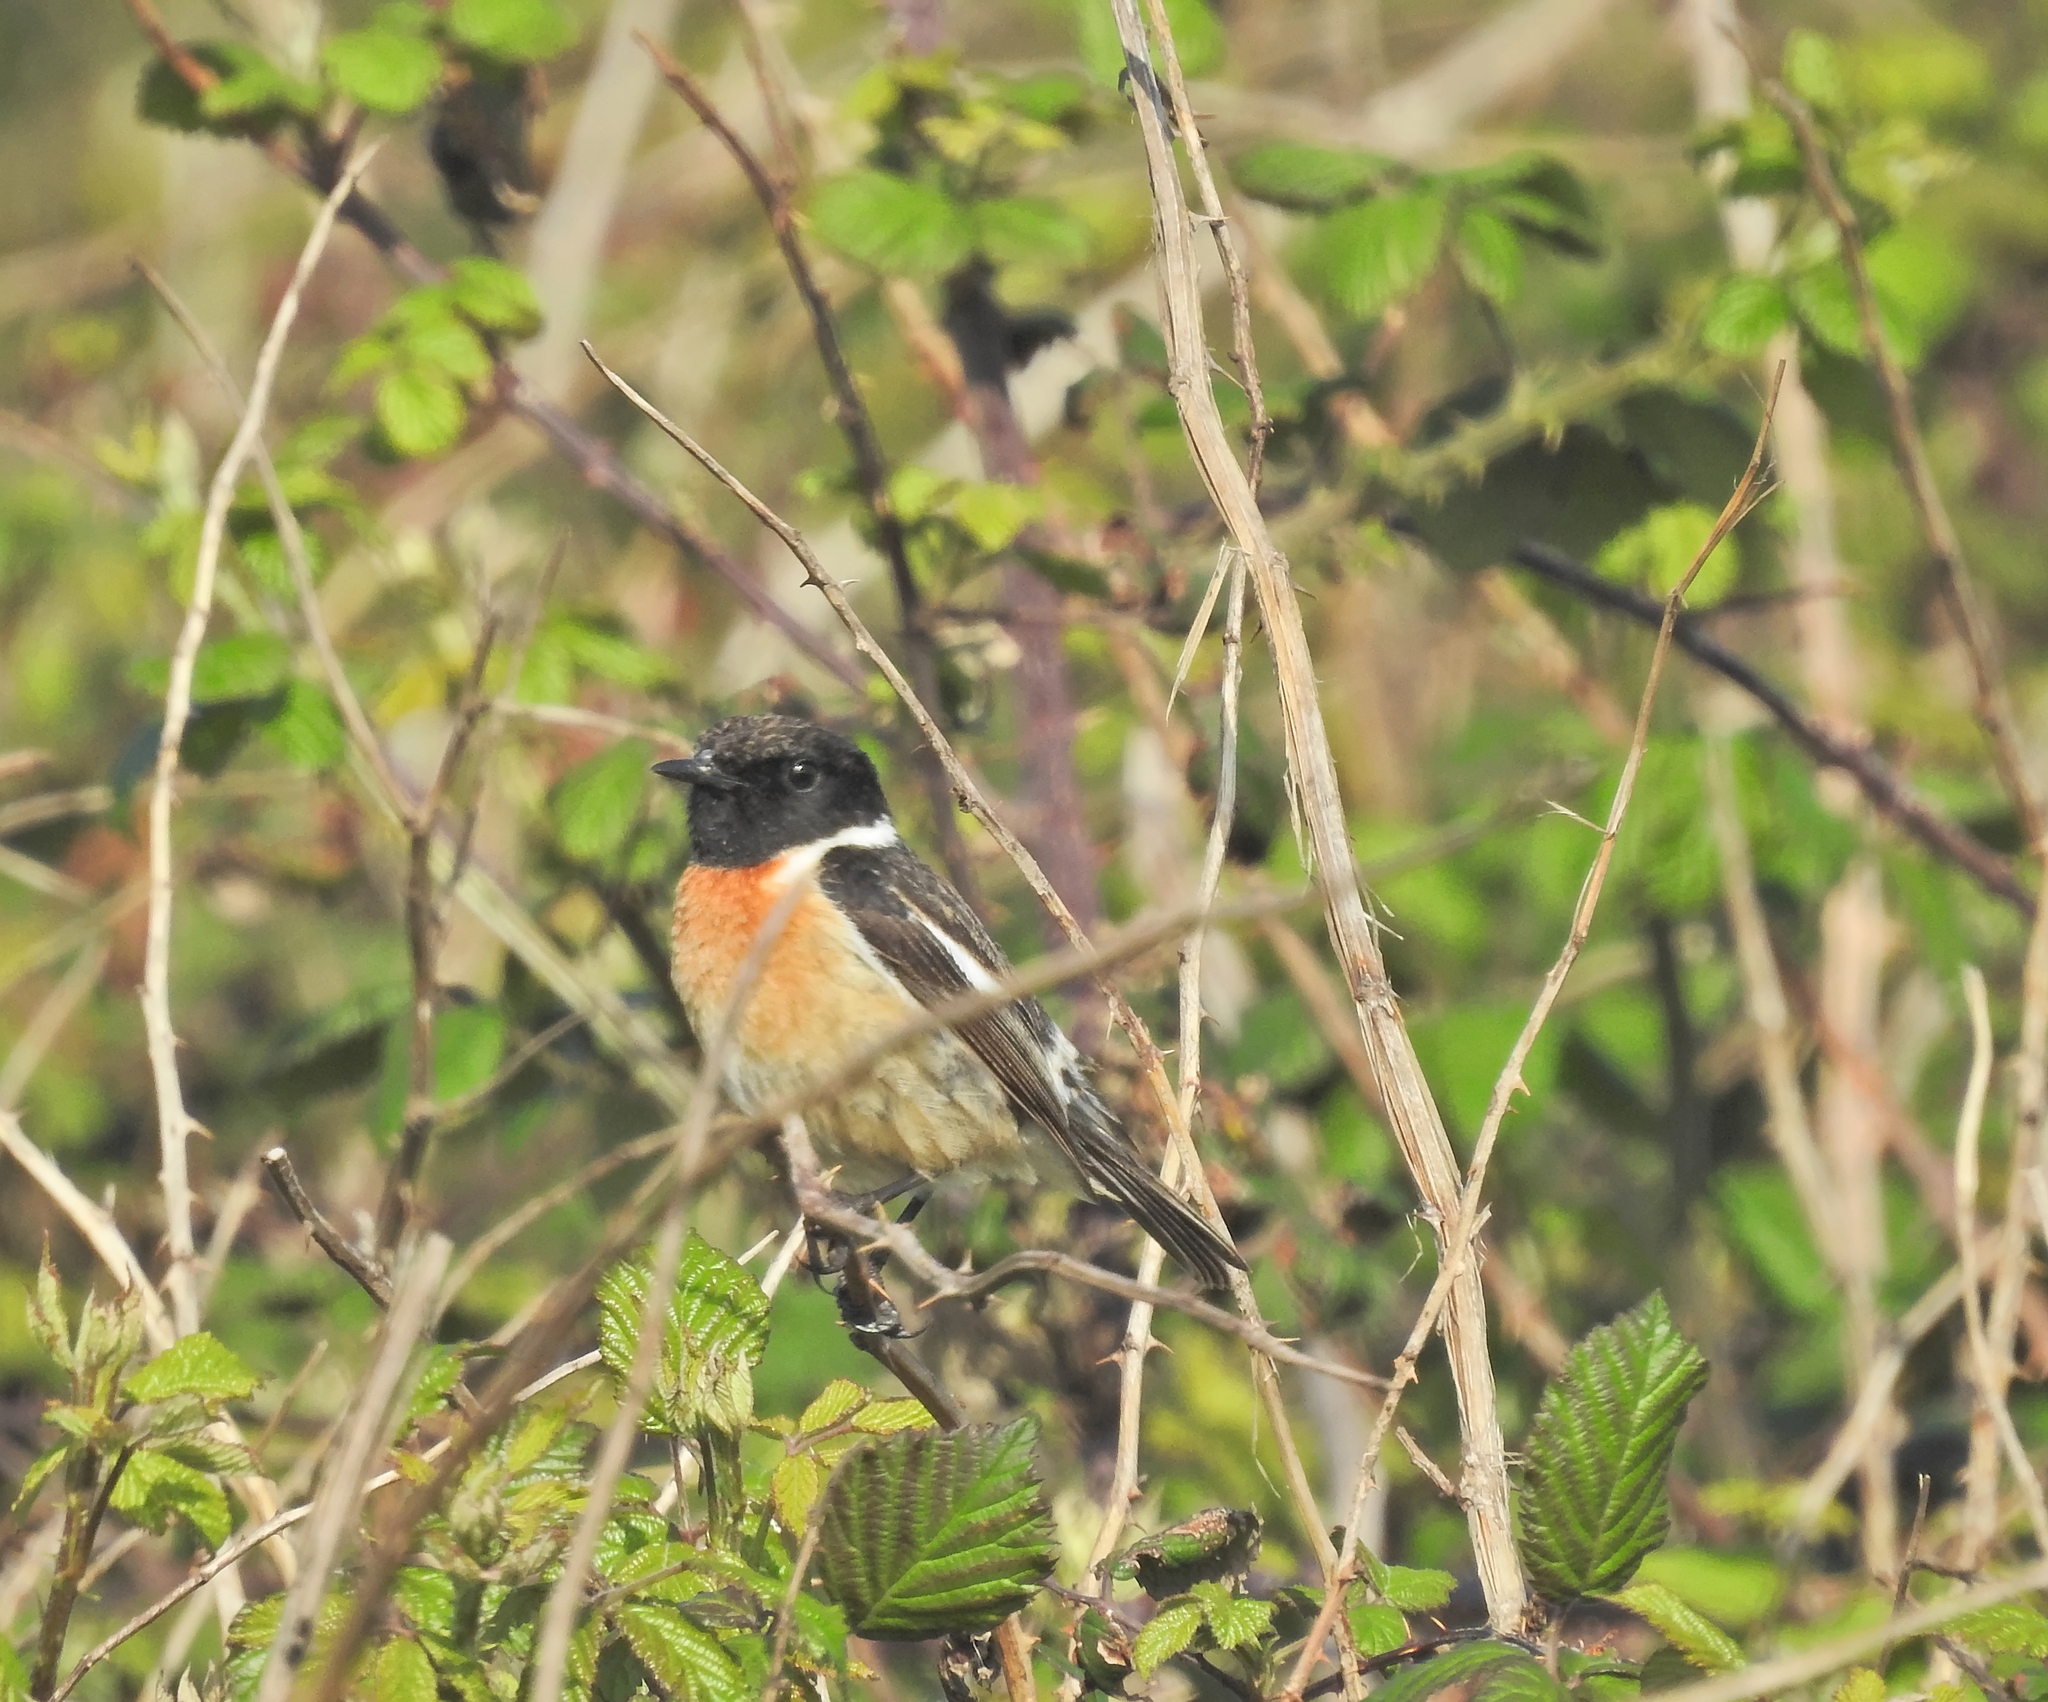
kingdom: Animalia
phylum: Chordata
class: Aves
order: Passeriformes
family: Muscicapidae
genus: Saxicola
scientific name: Saxicola rubicola
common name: European stonechat
